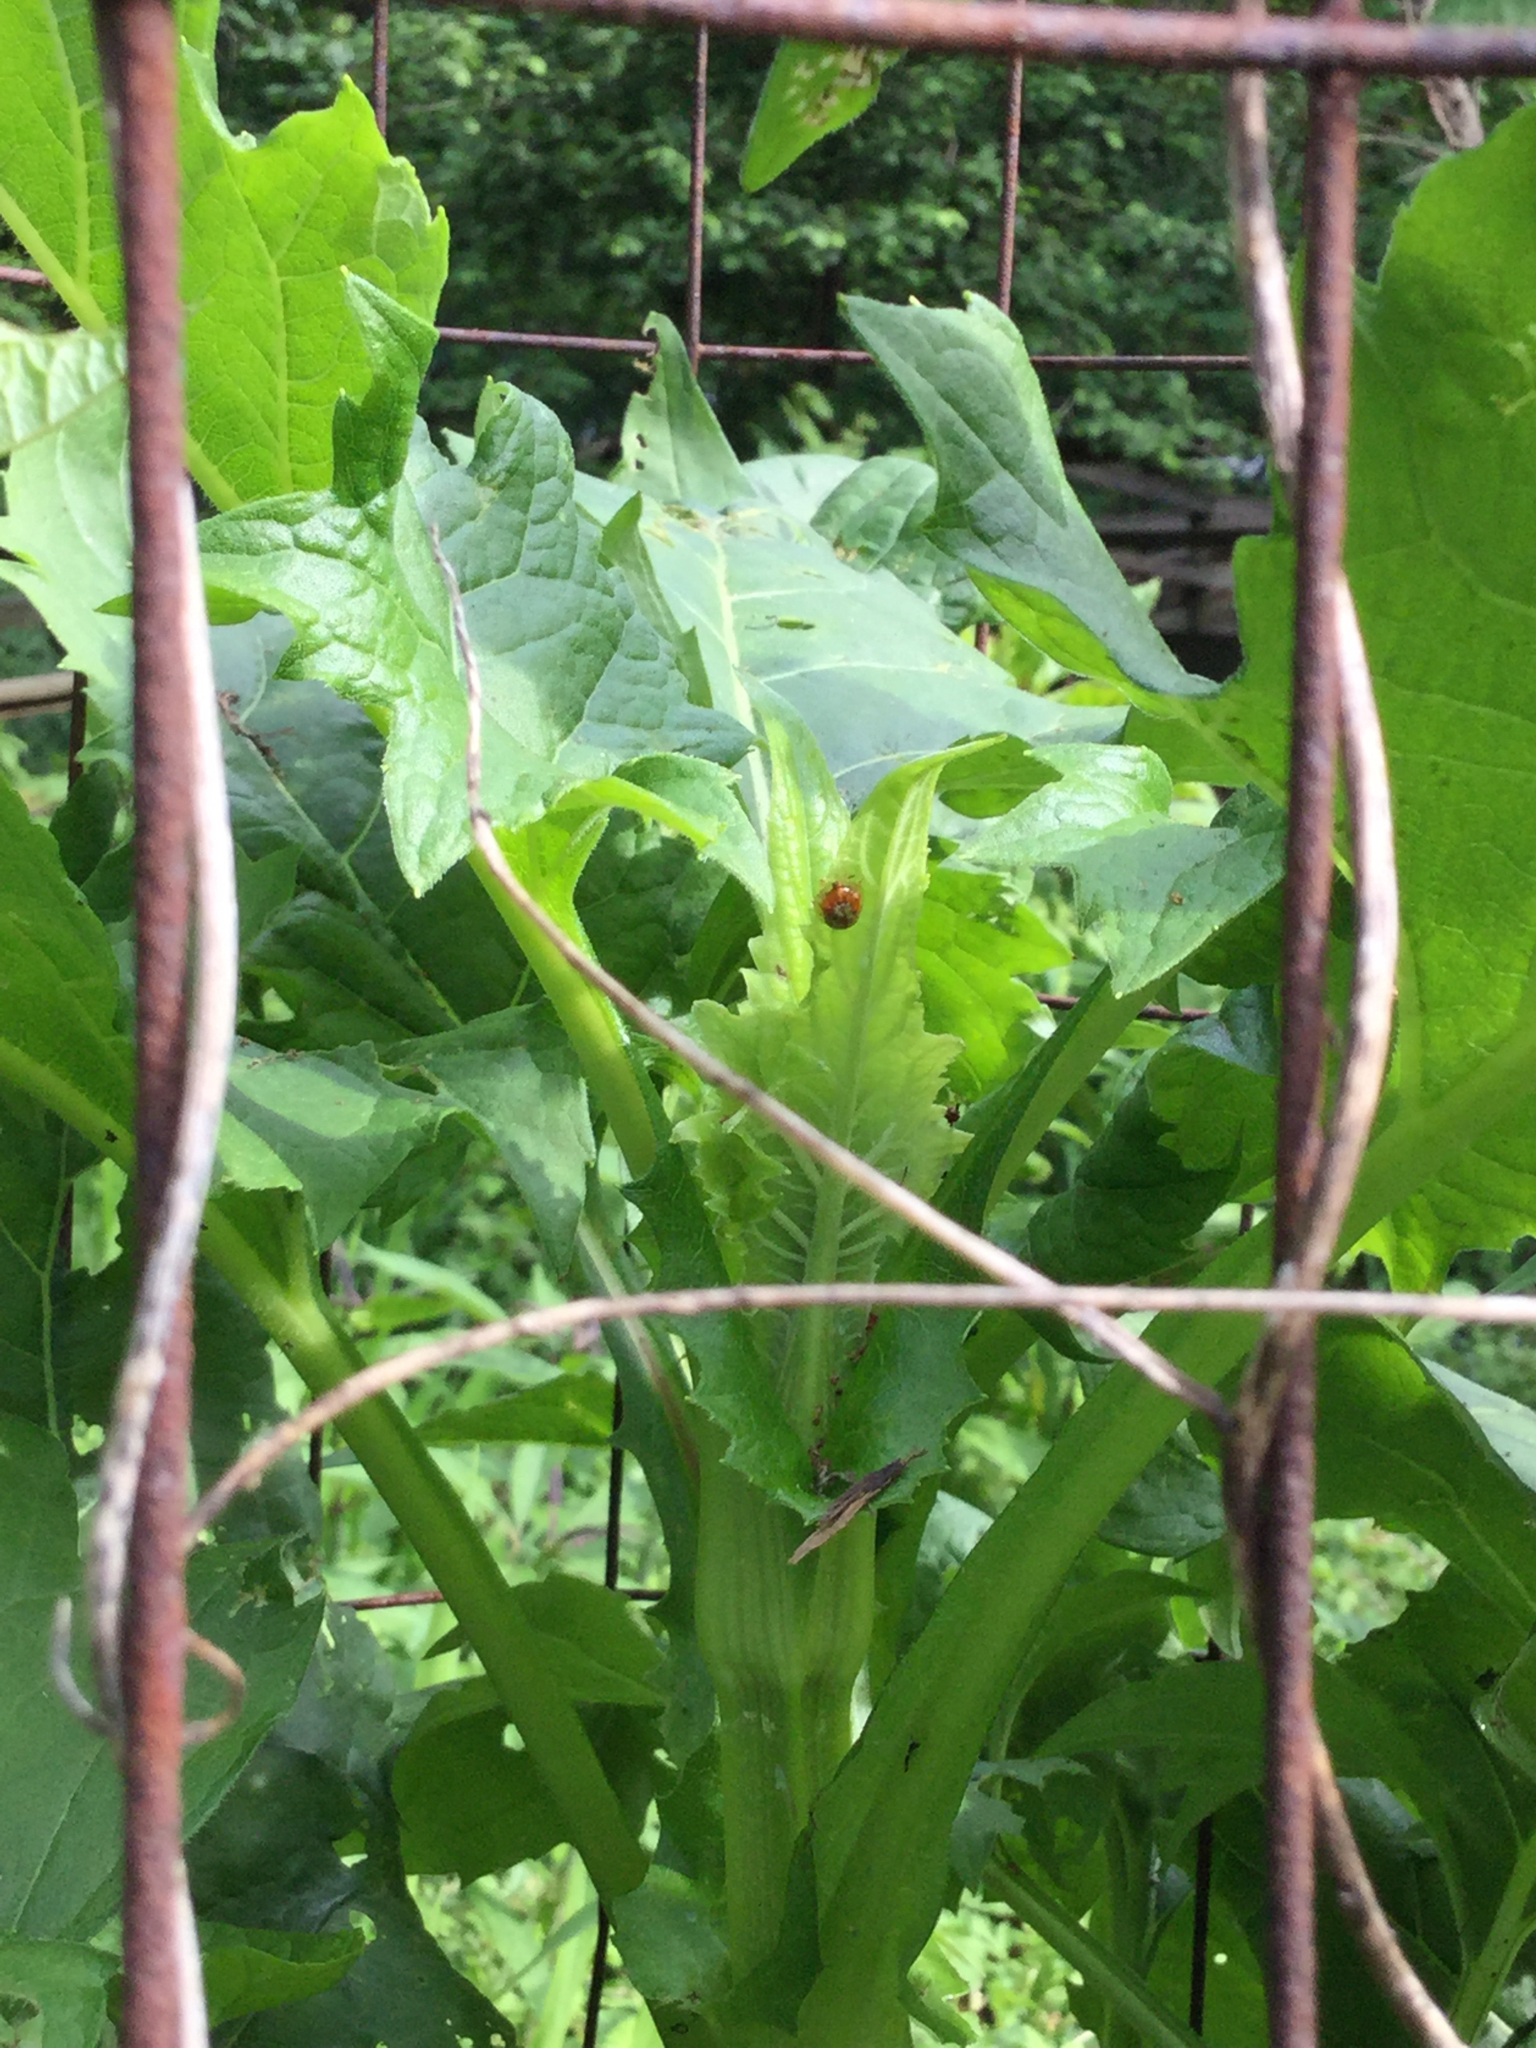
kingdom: Animalia
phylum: Arthropoda
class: Insecta
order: Coleoptera
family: Chrysomelidae
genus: Charidotella
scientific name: Charidotella sexpunctata
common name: Golden tortoise beetle
